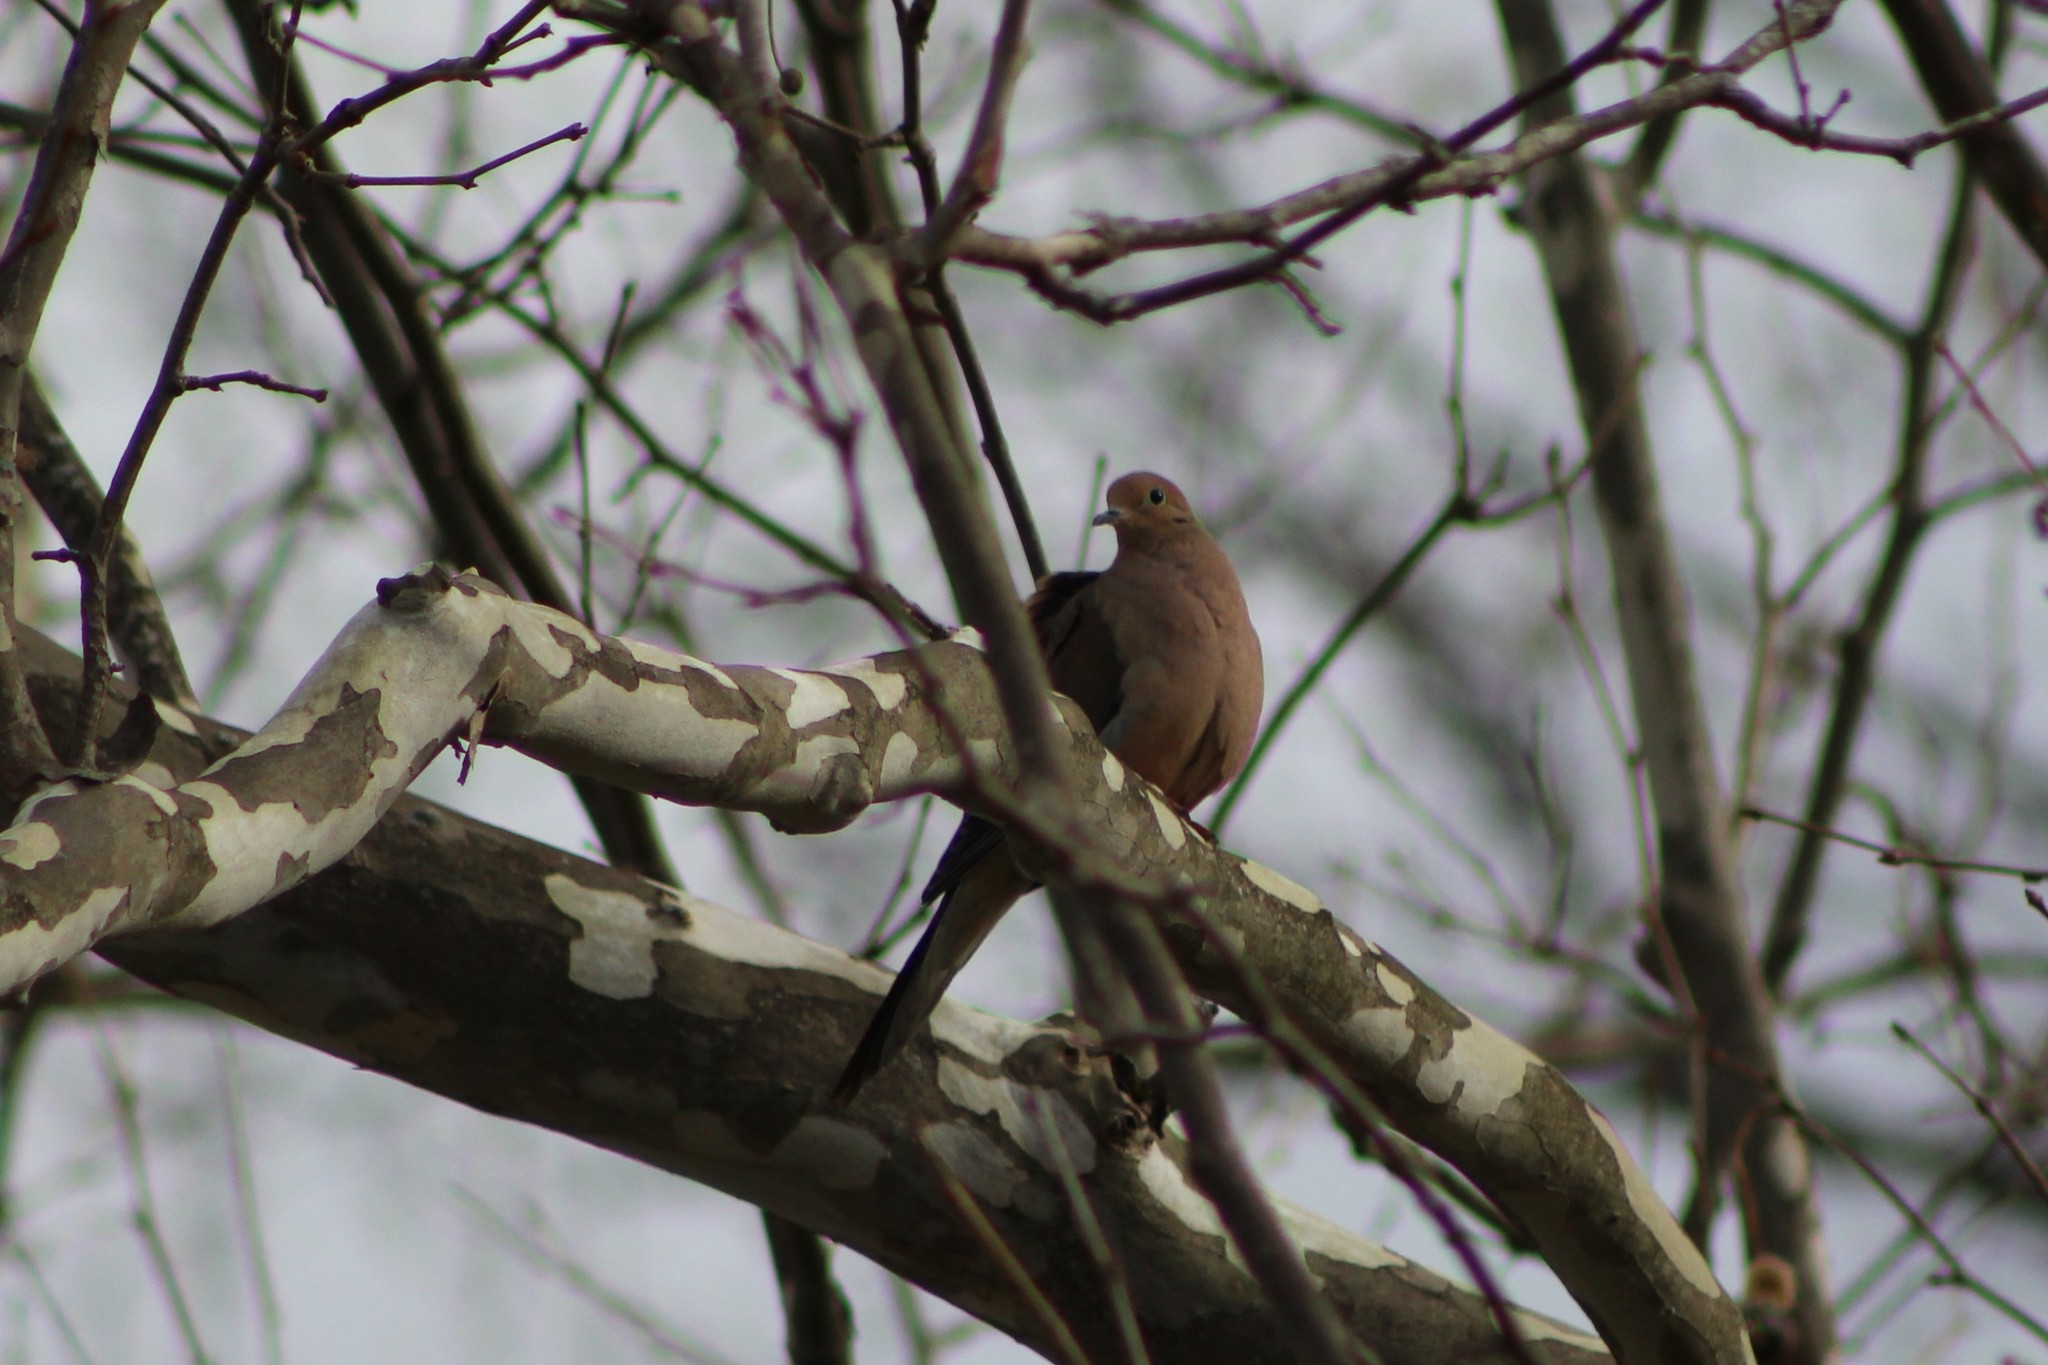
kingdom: Animalia
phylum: Chordata
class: Aves
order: Columbiformes
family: Columbidae
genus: Zenaida
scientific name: Zenaida macroura
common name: Mourning dove
